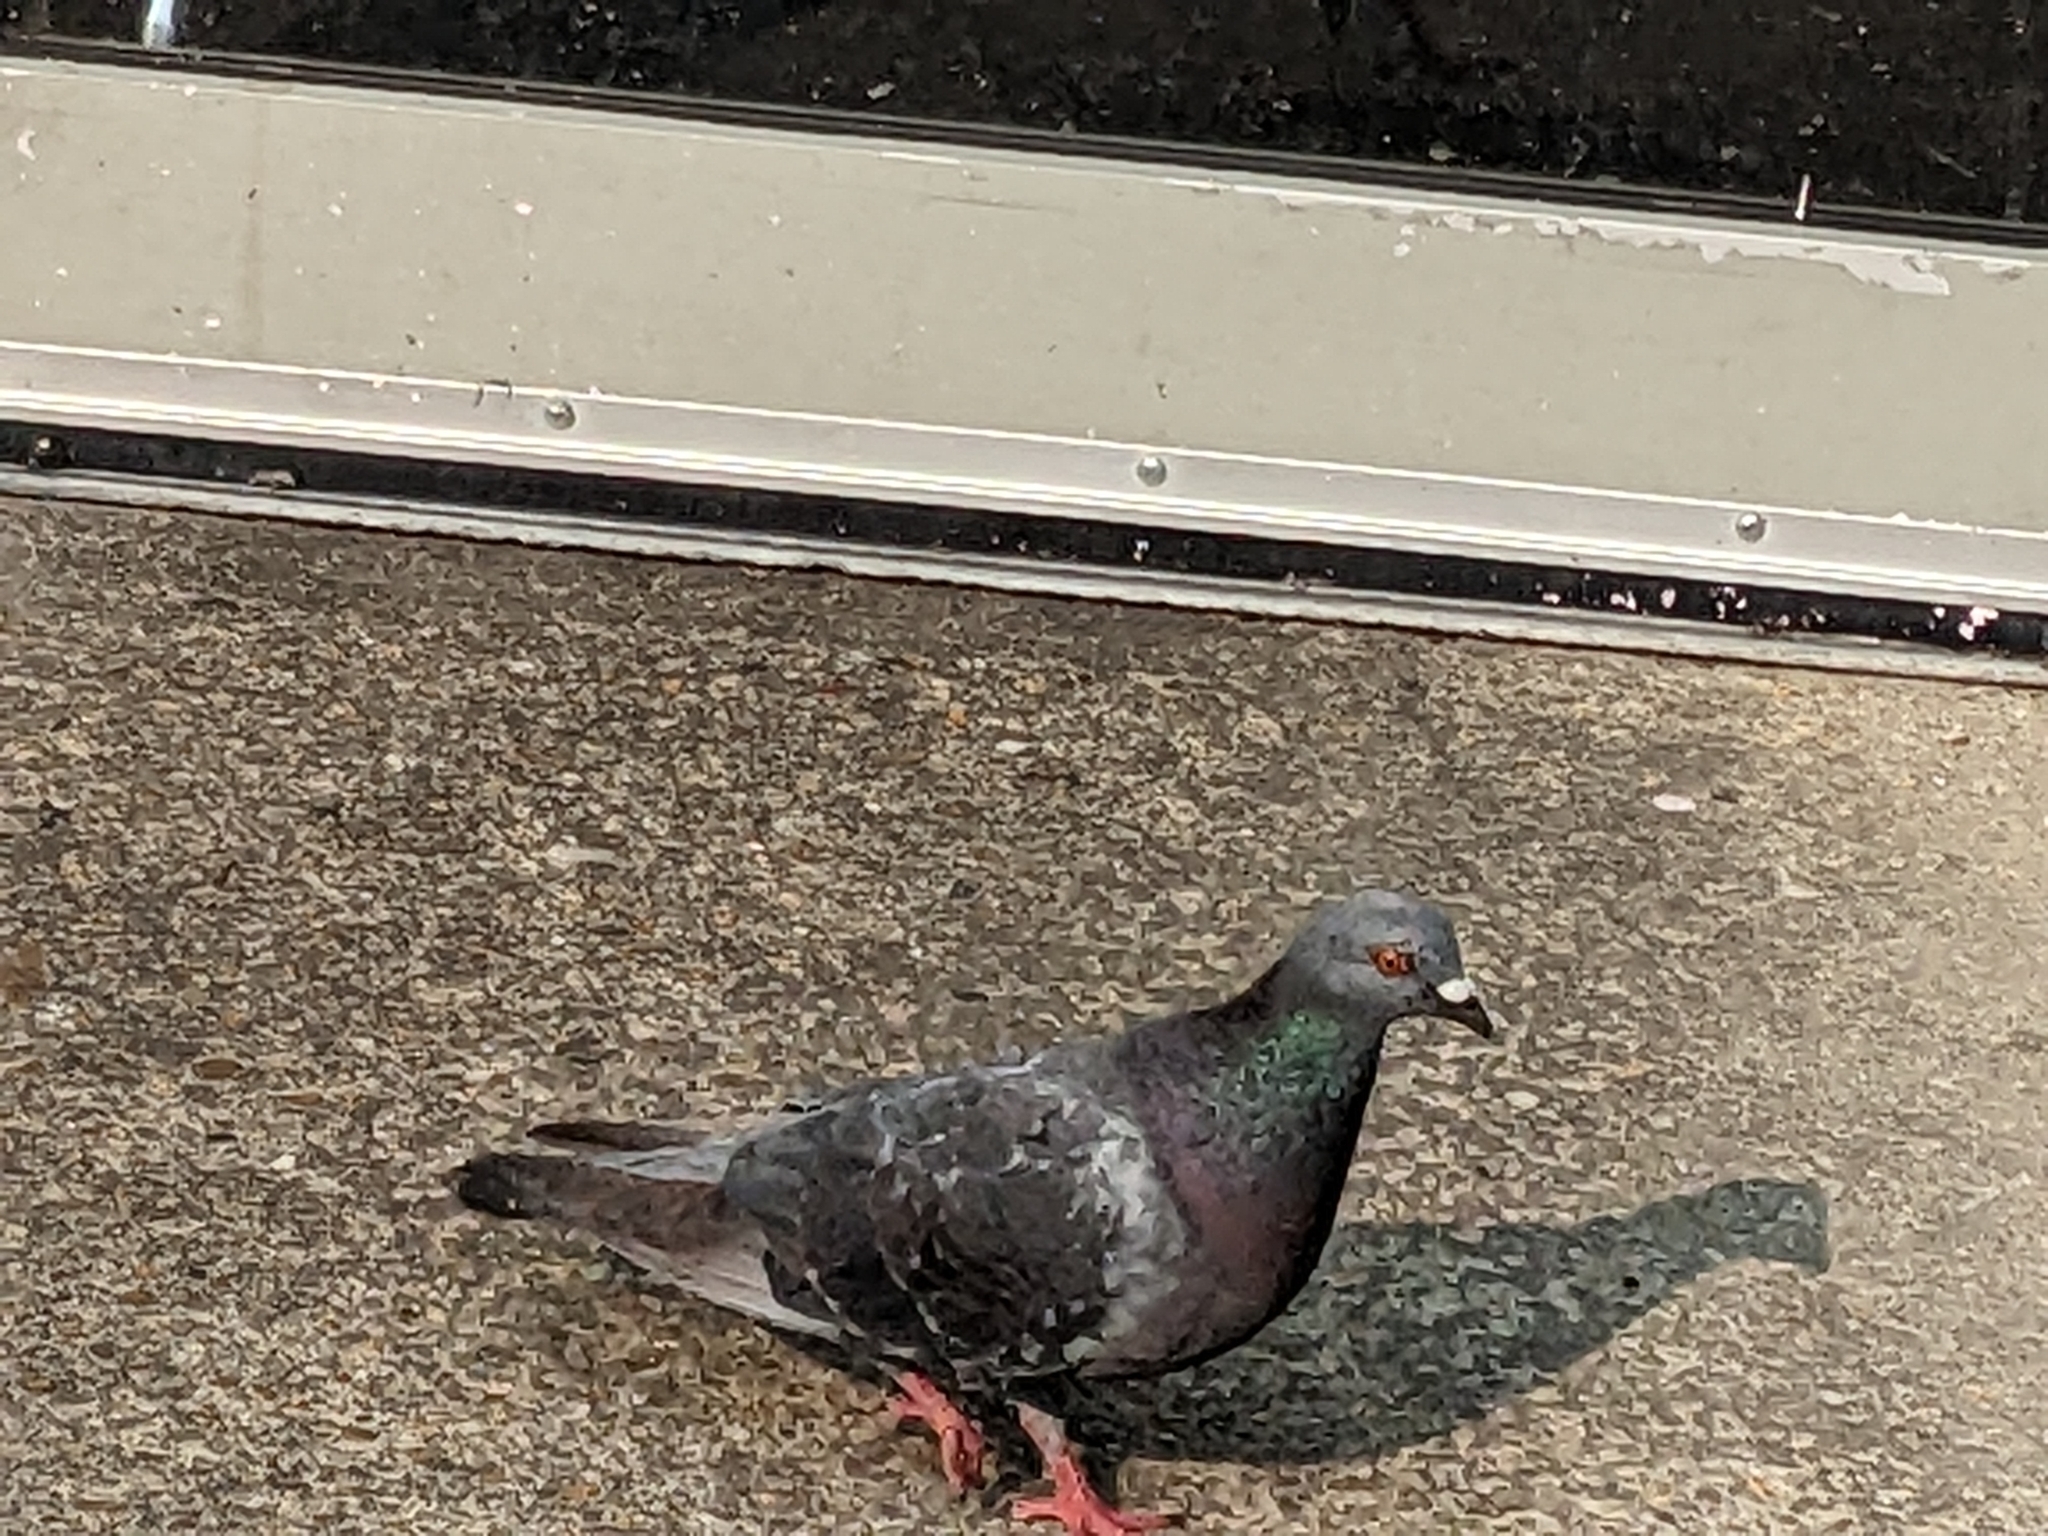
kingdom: Animalia
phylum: Chordata
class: Aves
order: Columbiformes
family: Columbidae
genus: Columba
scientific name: Columba livia
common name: Rock pigeon
